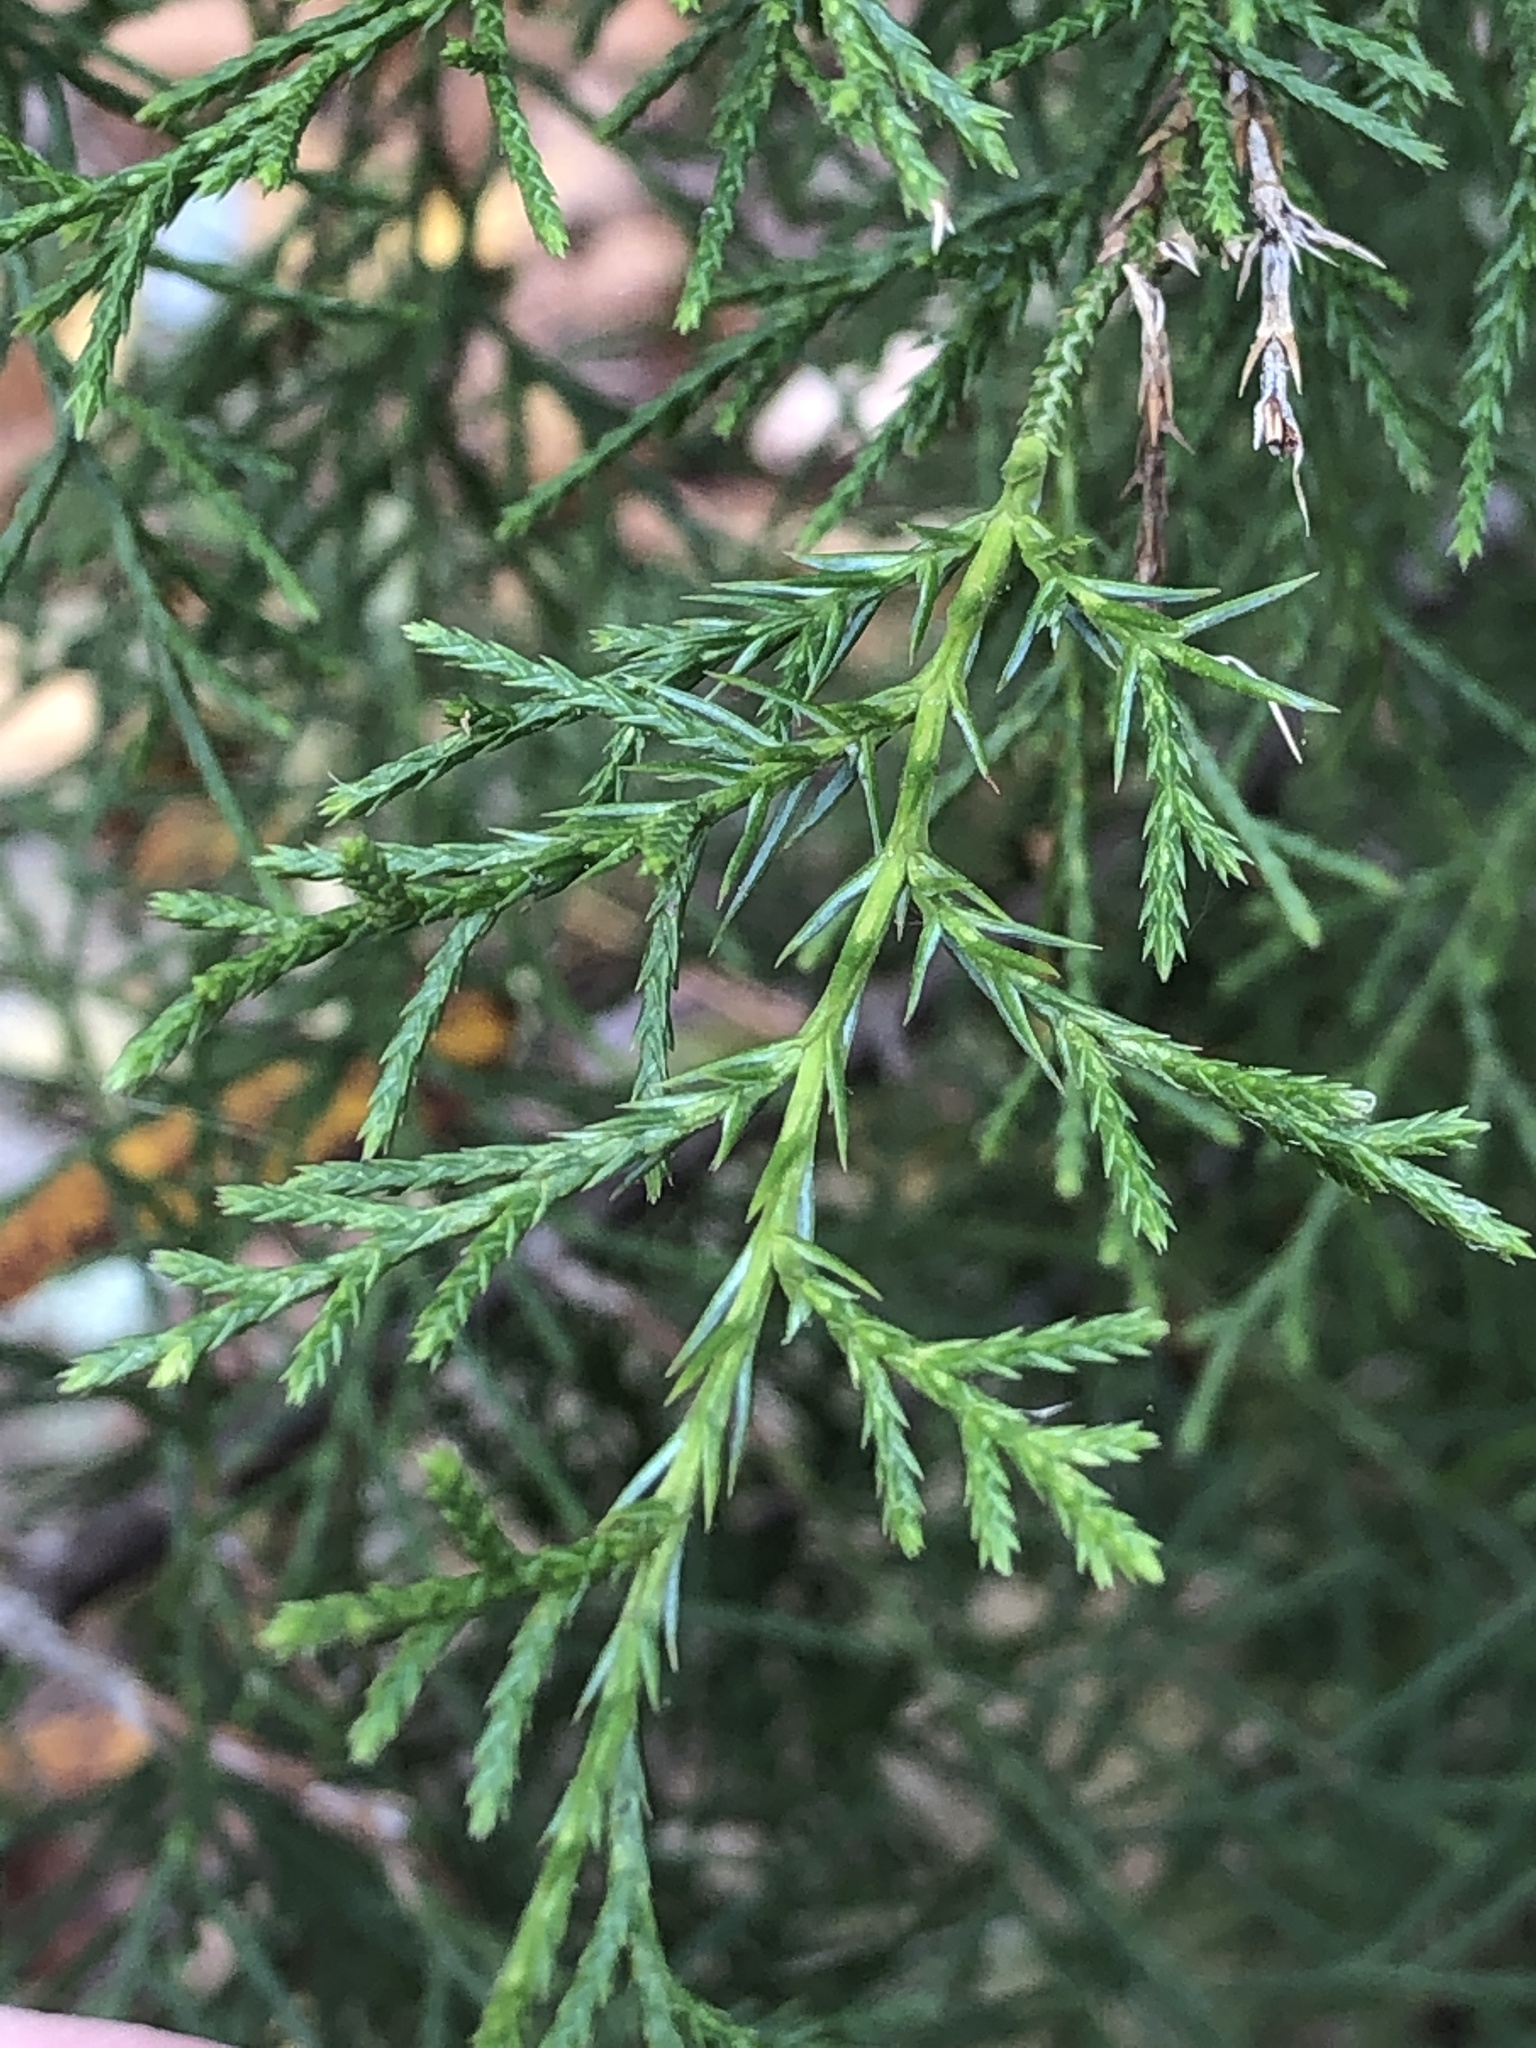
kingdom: Plantae
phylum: Tracheophyta
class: Pinopsida
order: Pinales
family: Cupressaceae
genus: Juniperus
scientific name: Juniperus virginiana
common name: Red juniper
